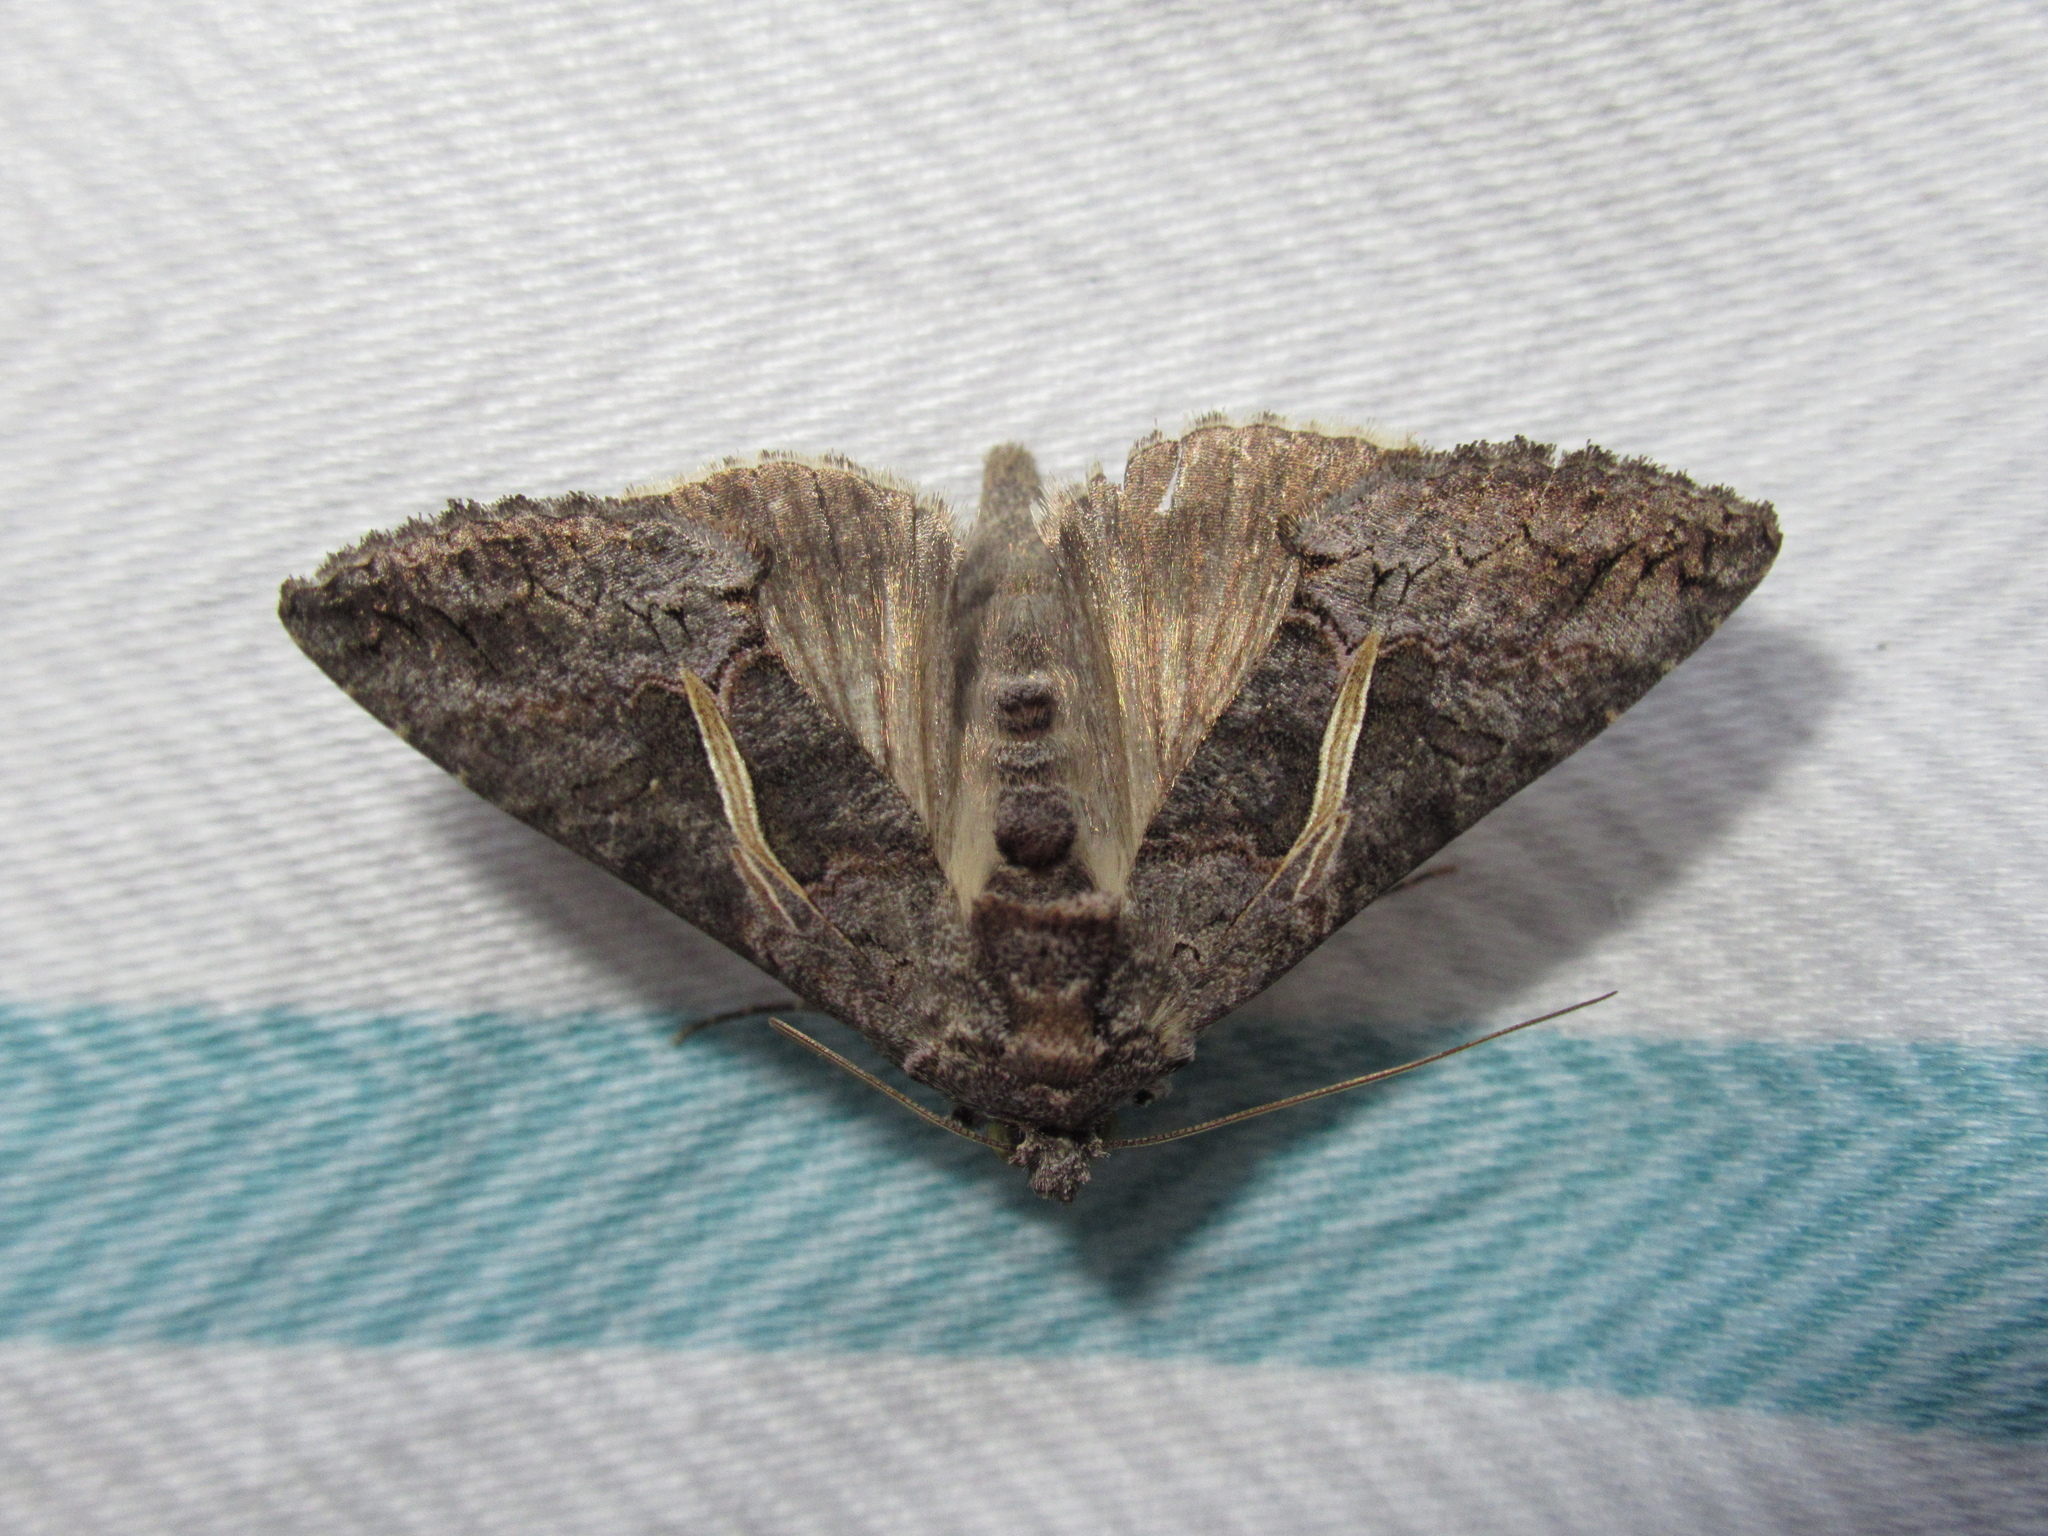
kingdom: Animalia
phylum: Arthropoda
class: Insecta
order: Lepidoptera
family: Noctuidae
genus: Ctenoplusia
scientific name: Ctenoplusia albostriata
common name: Moth
